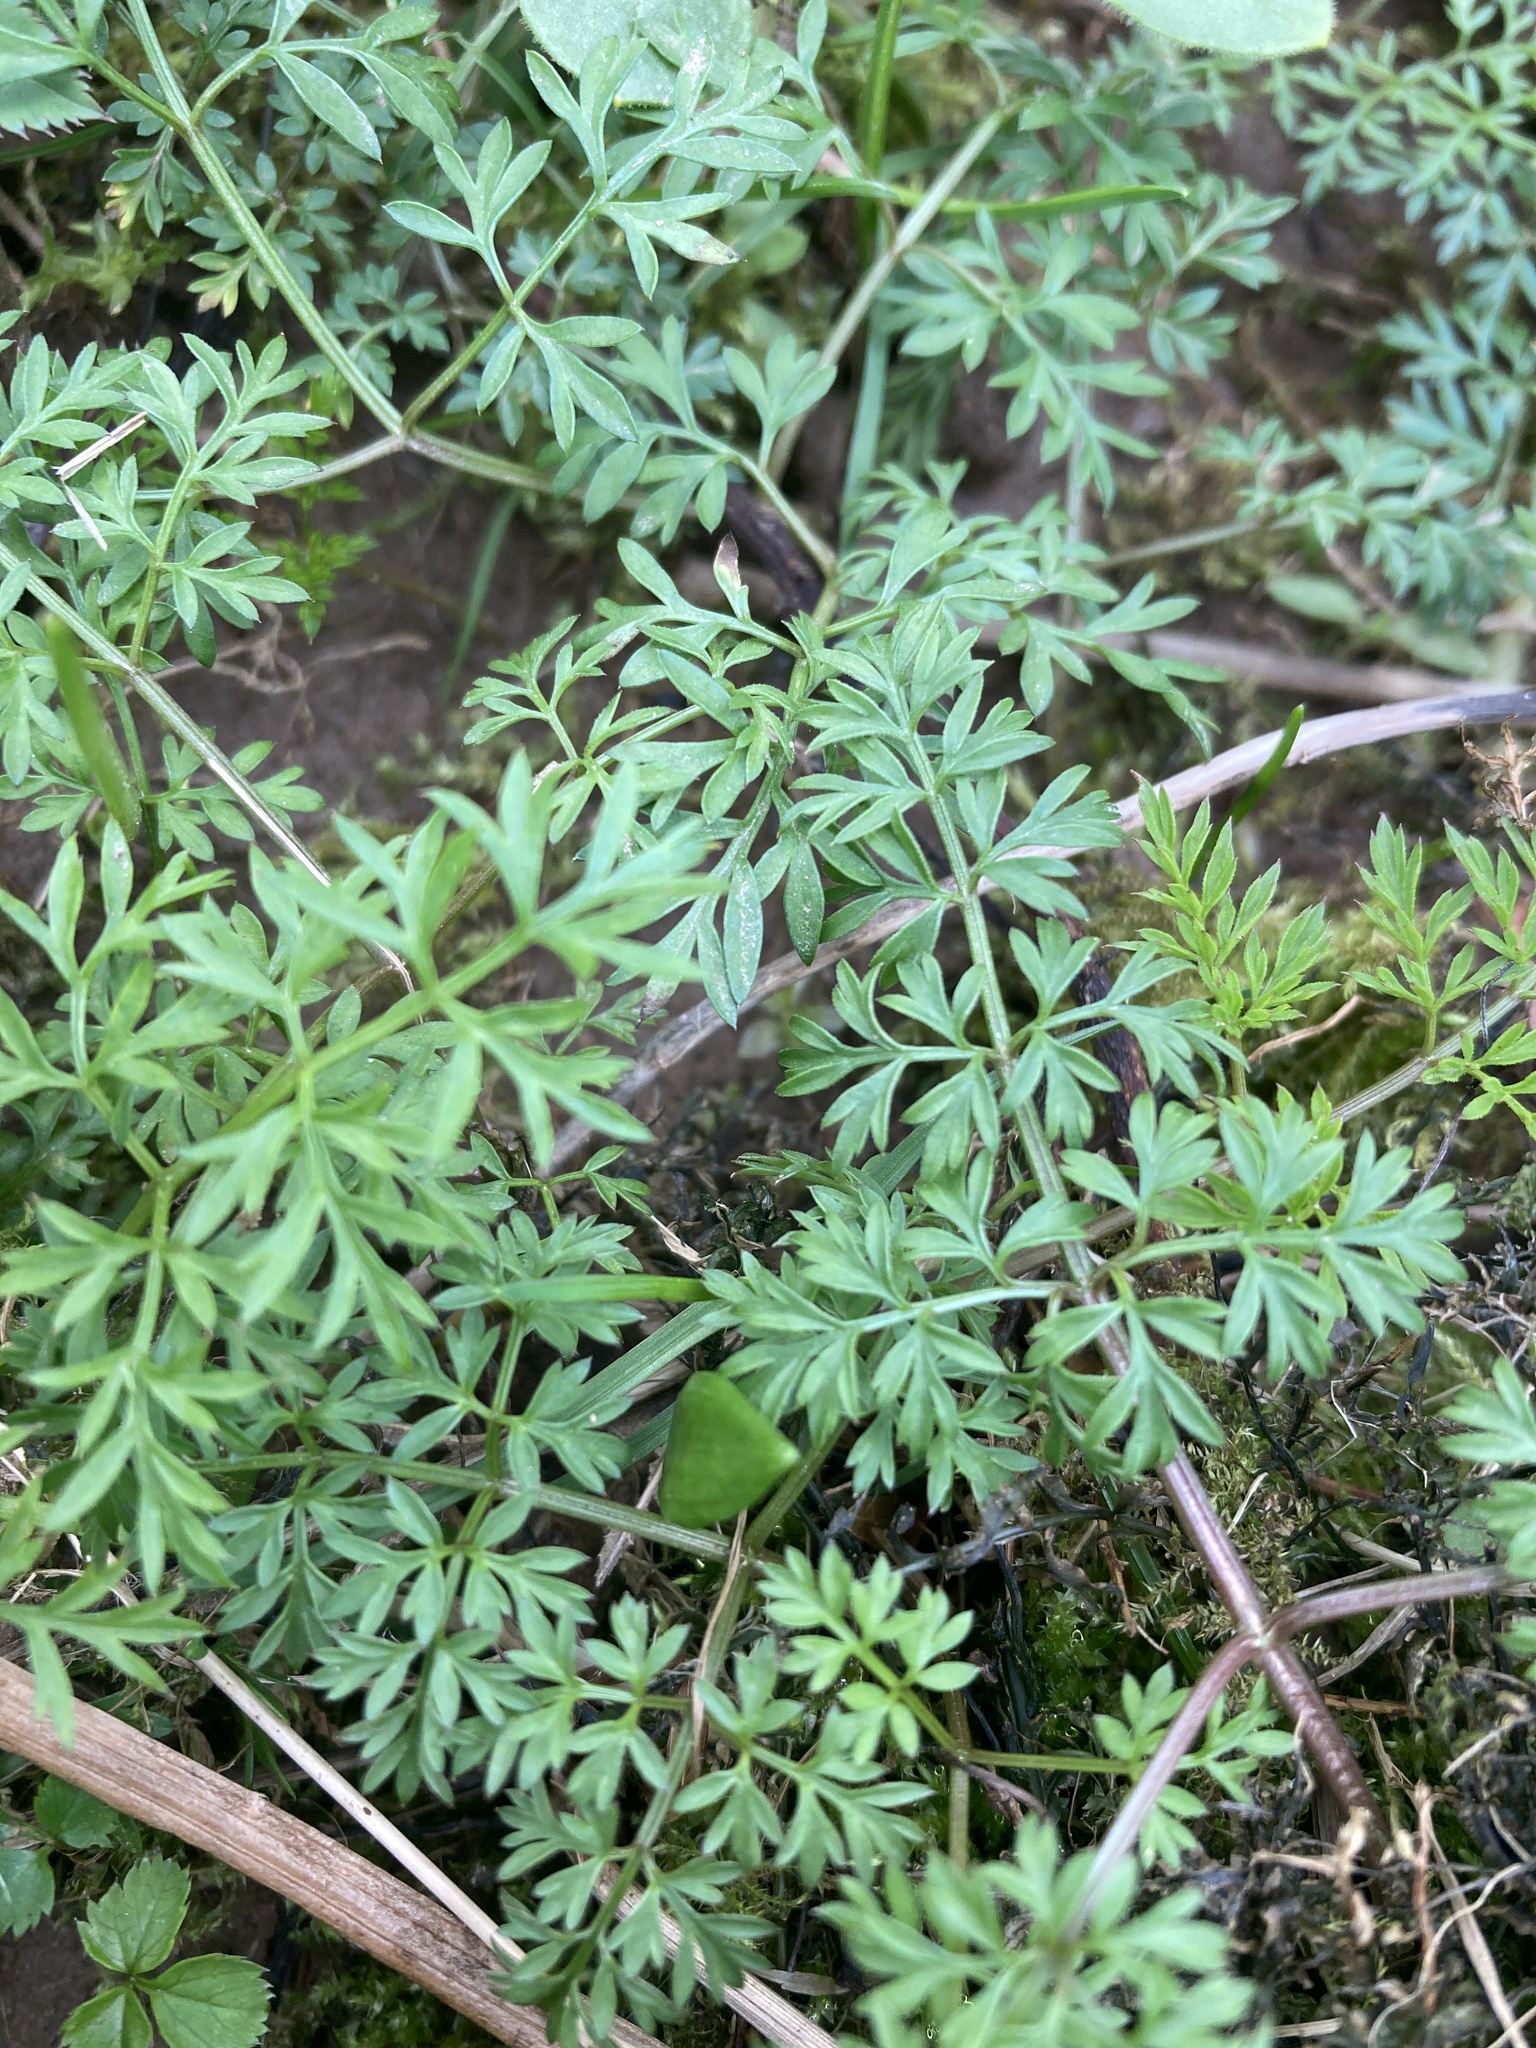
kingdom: Plantae
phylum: Tracheophyta
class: Magnoliopsida
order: Apiales
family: Apiaceae
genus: Conopodium
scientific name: Conopodium majus
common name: Pignut
